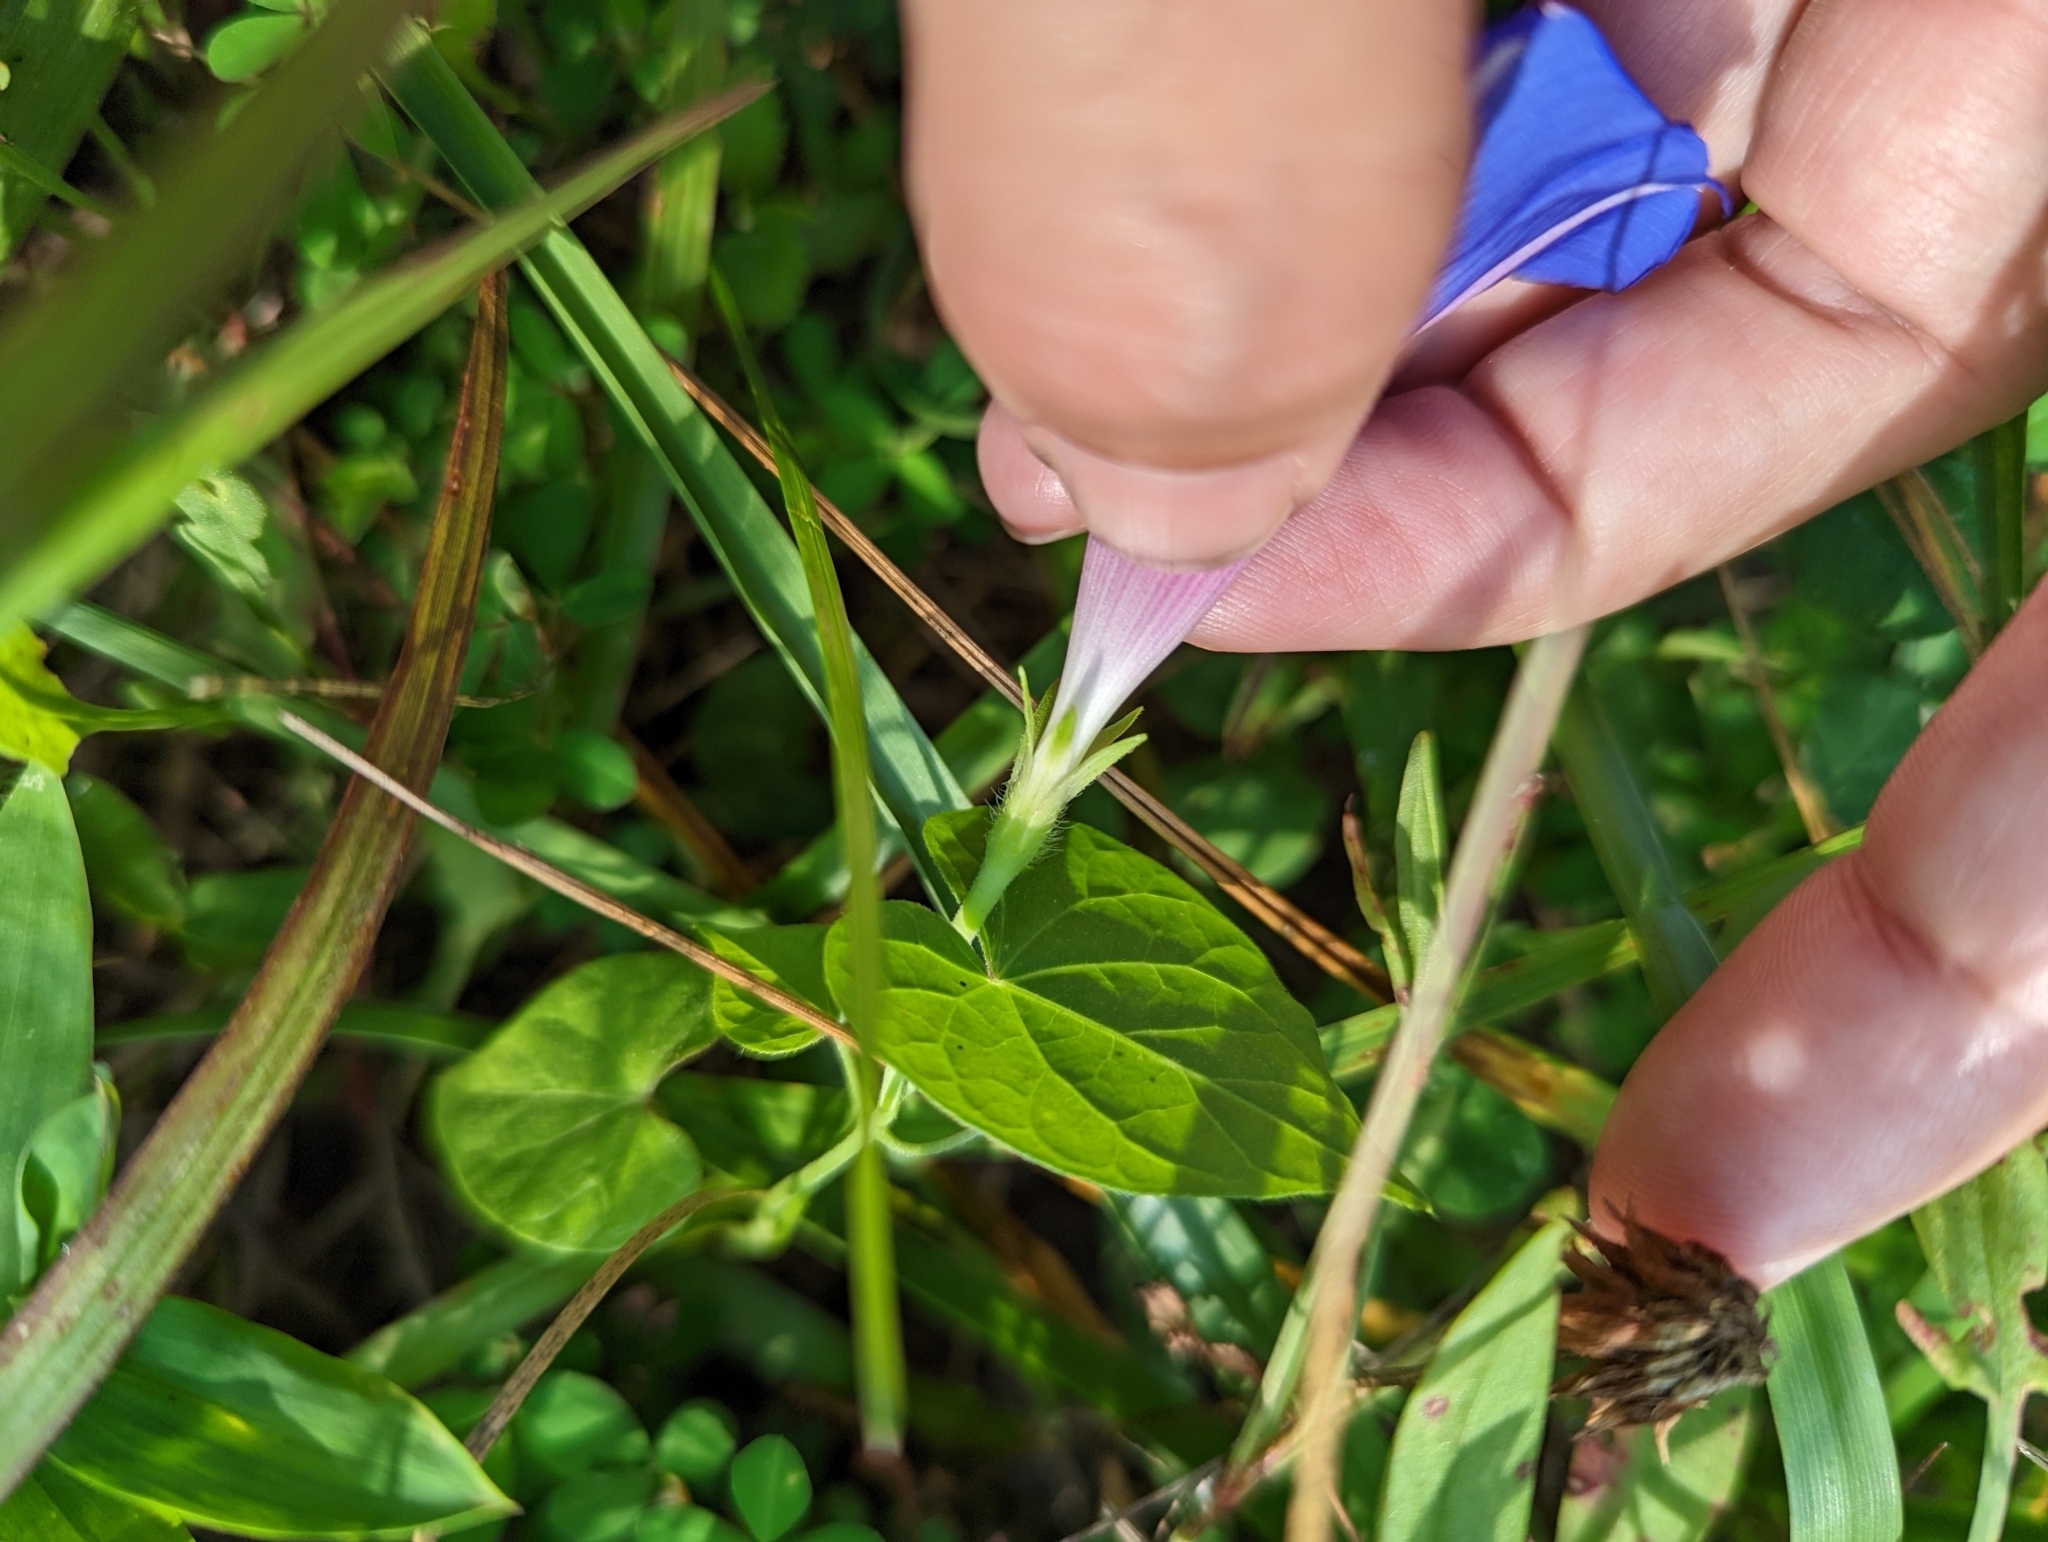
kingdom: Plantae
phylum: Tracheophyta
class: Magnoliopsida
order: Solanales
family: Convolvulaceae
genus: Ipomoea
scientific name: Ipomoea purpurea
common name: Common morning-glory
